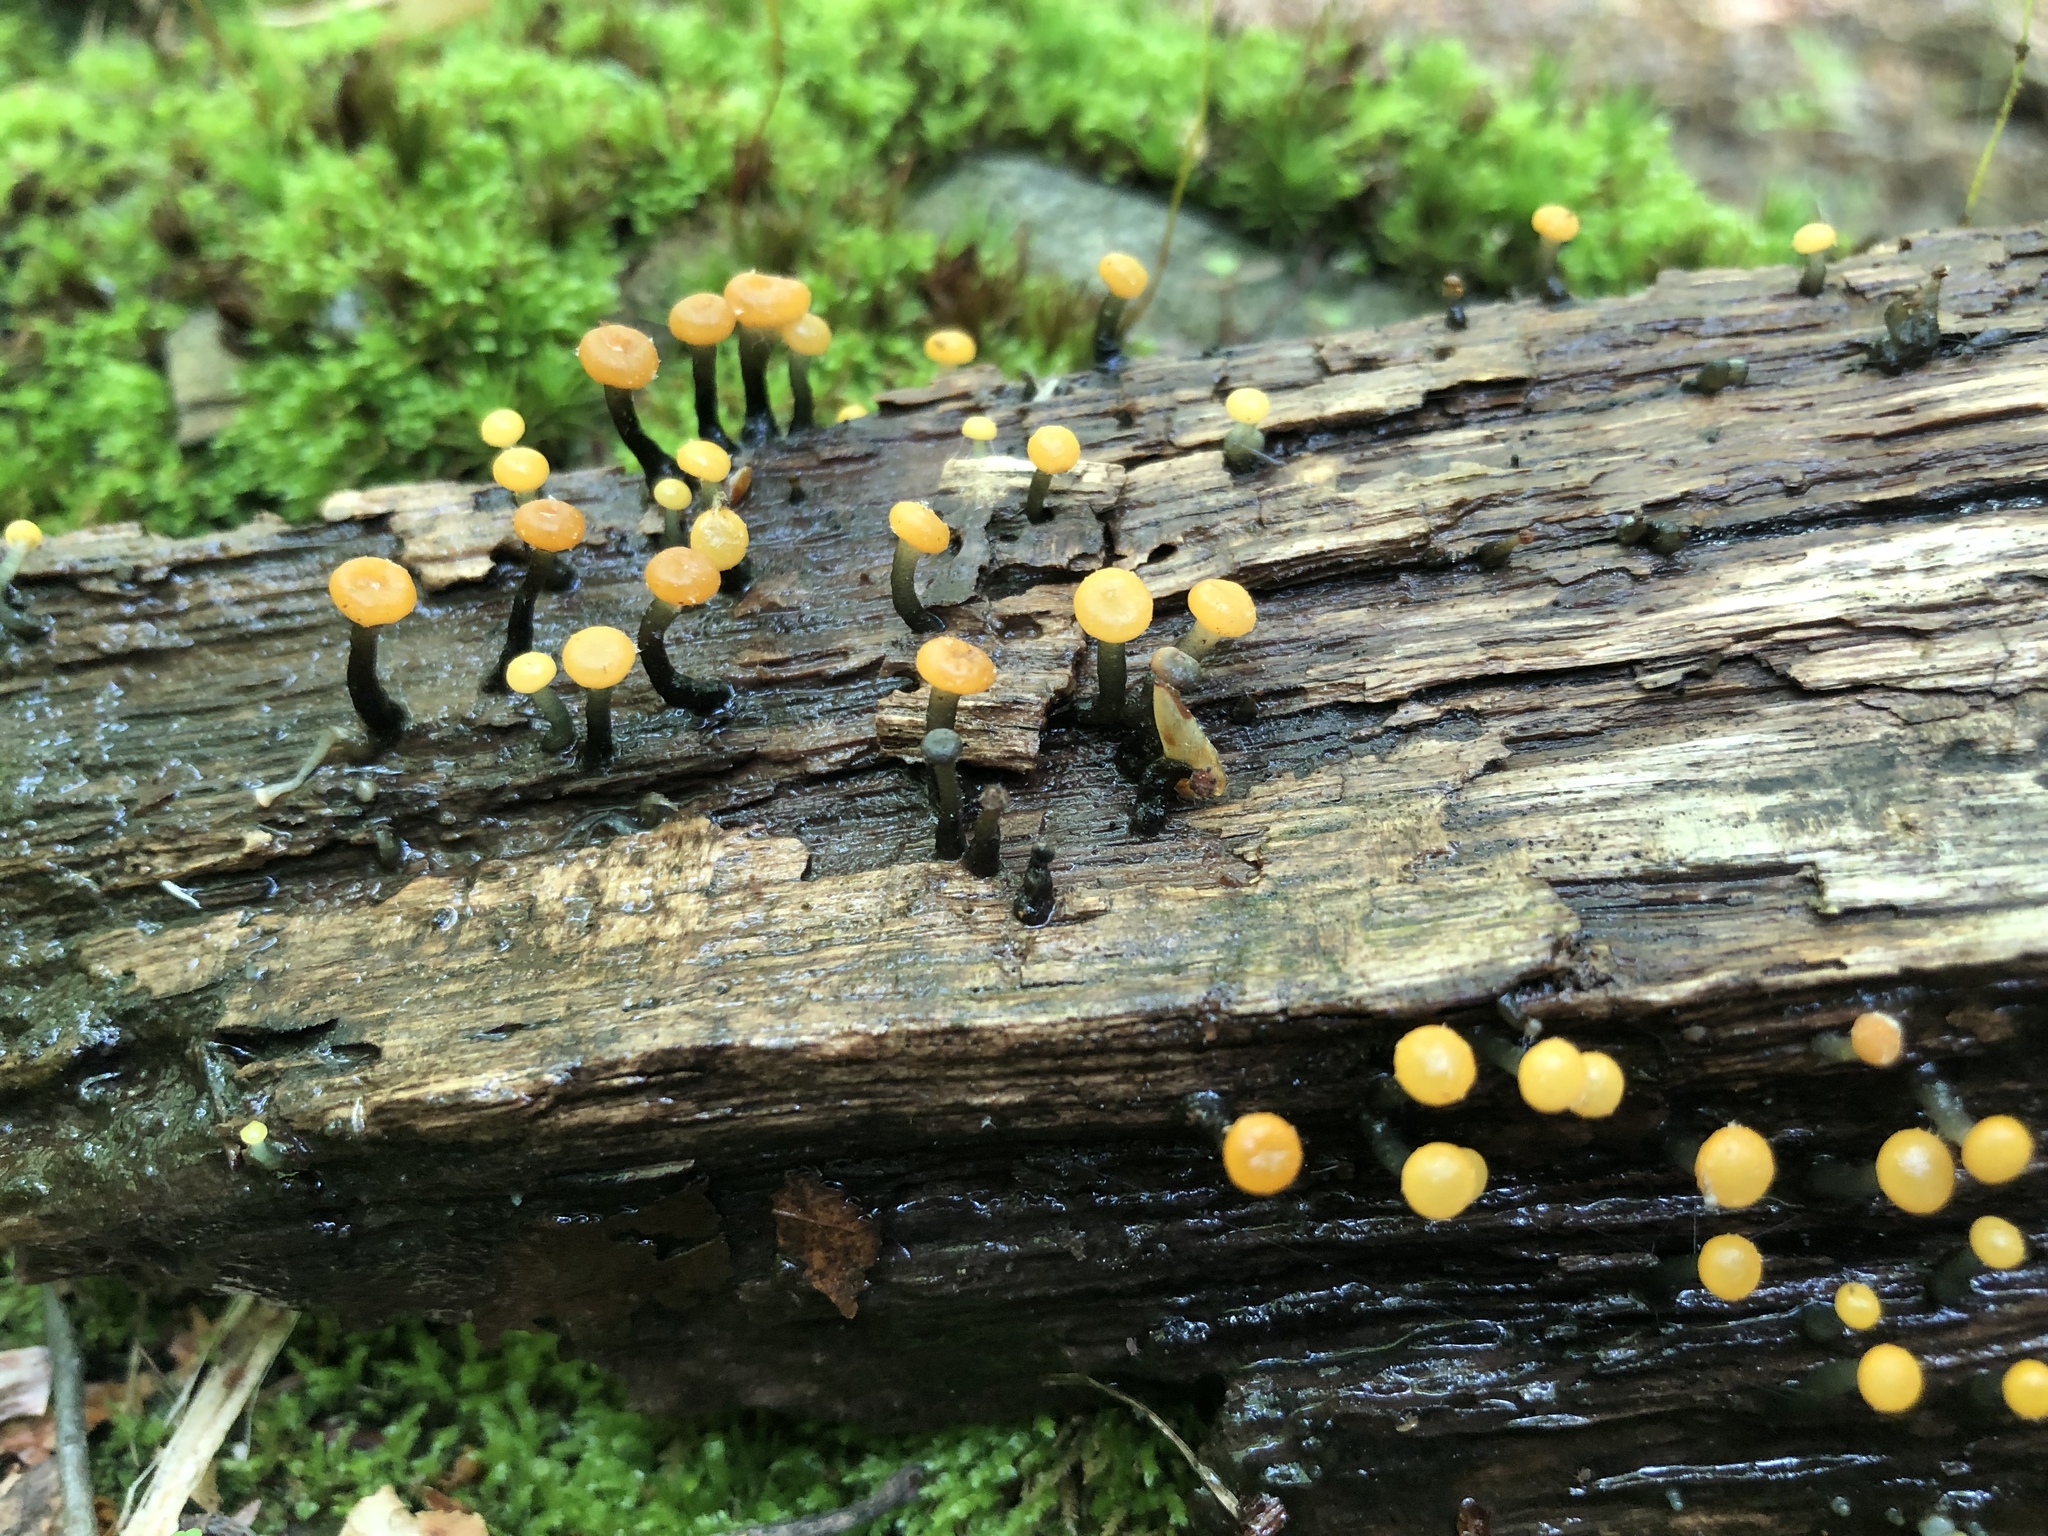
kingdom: Fungi
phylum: Ascomycota
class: Leotiomycetes
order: Helotiales
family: Vibrisseaceae
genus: Vibrissea
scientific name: Vibrissea truncorum
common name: Stream beacon
